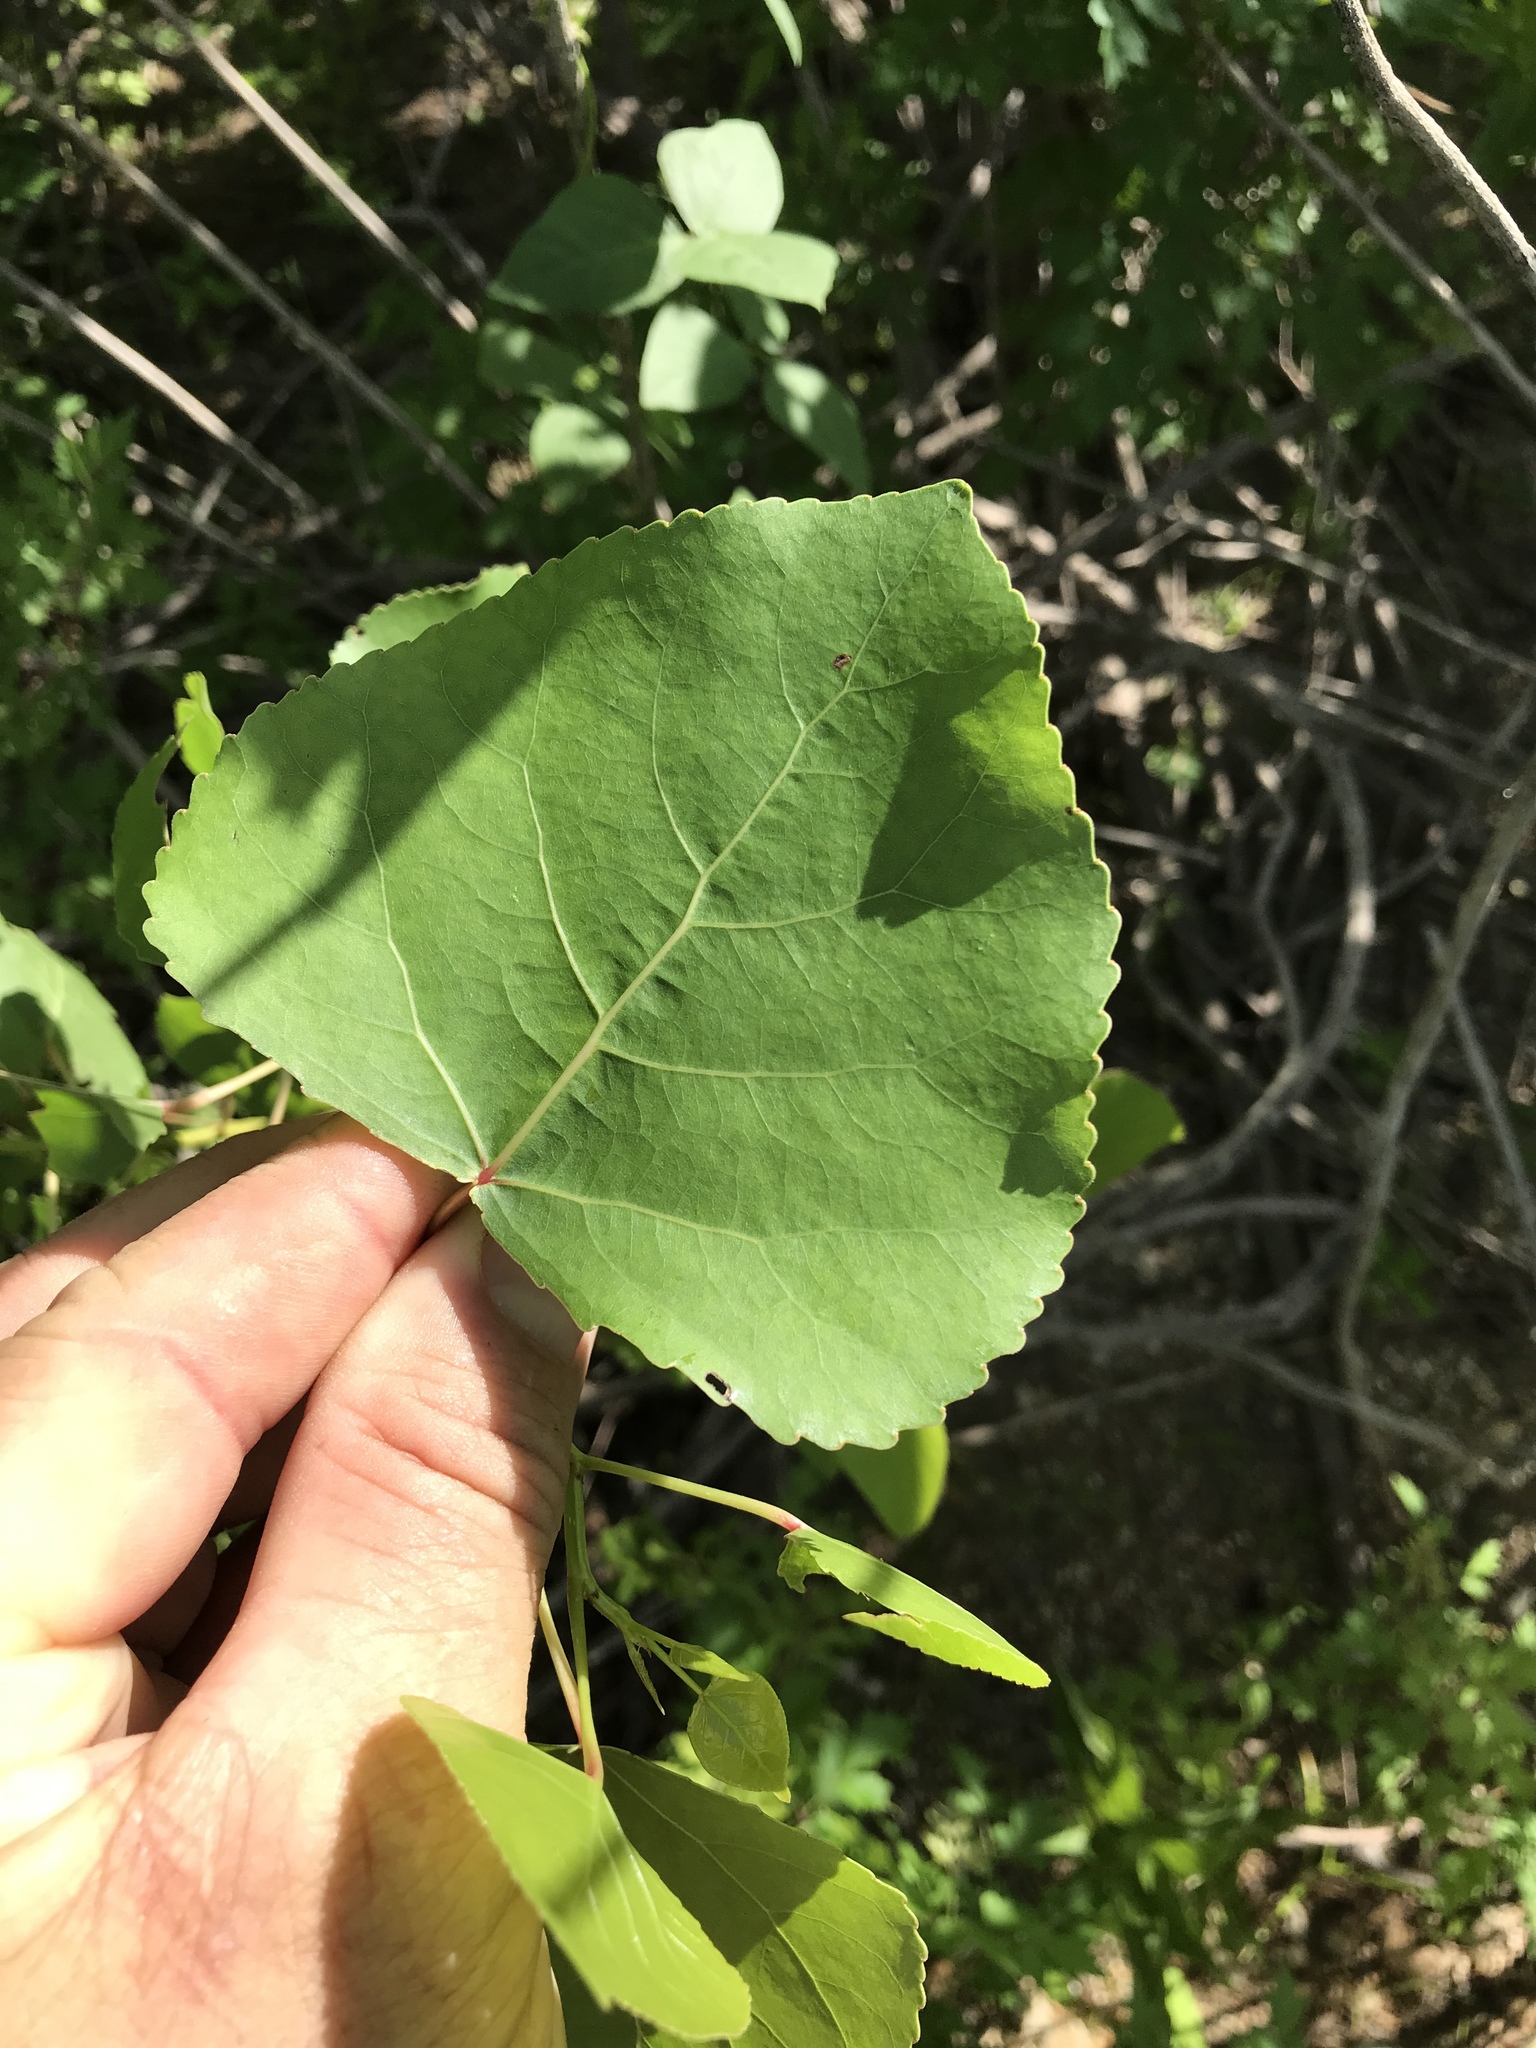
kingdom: Plantae
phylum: Tracheophyta
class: Magnoliopsida
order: Malpighiales
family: Salicaceae
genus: Populus
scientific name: Populus deltoides
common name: Eastern cottonwood
